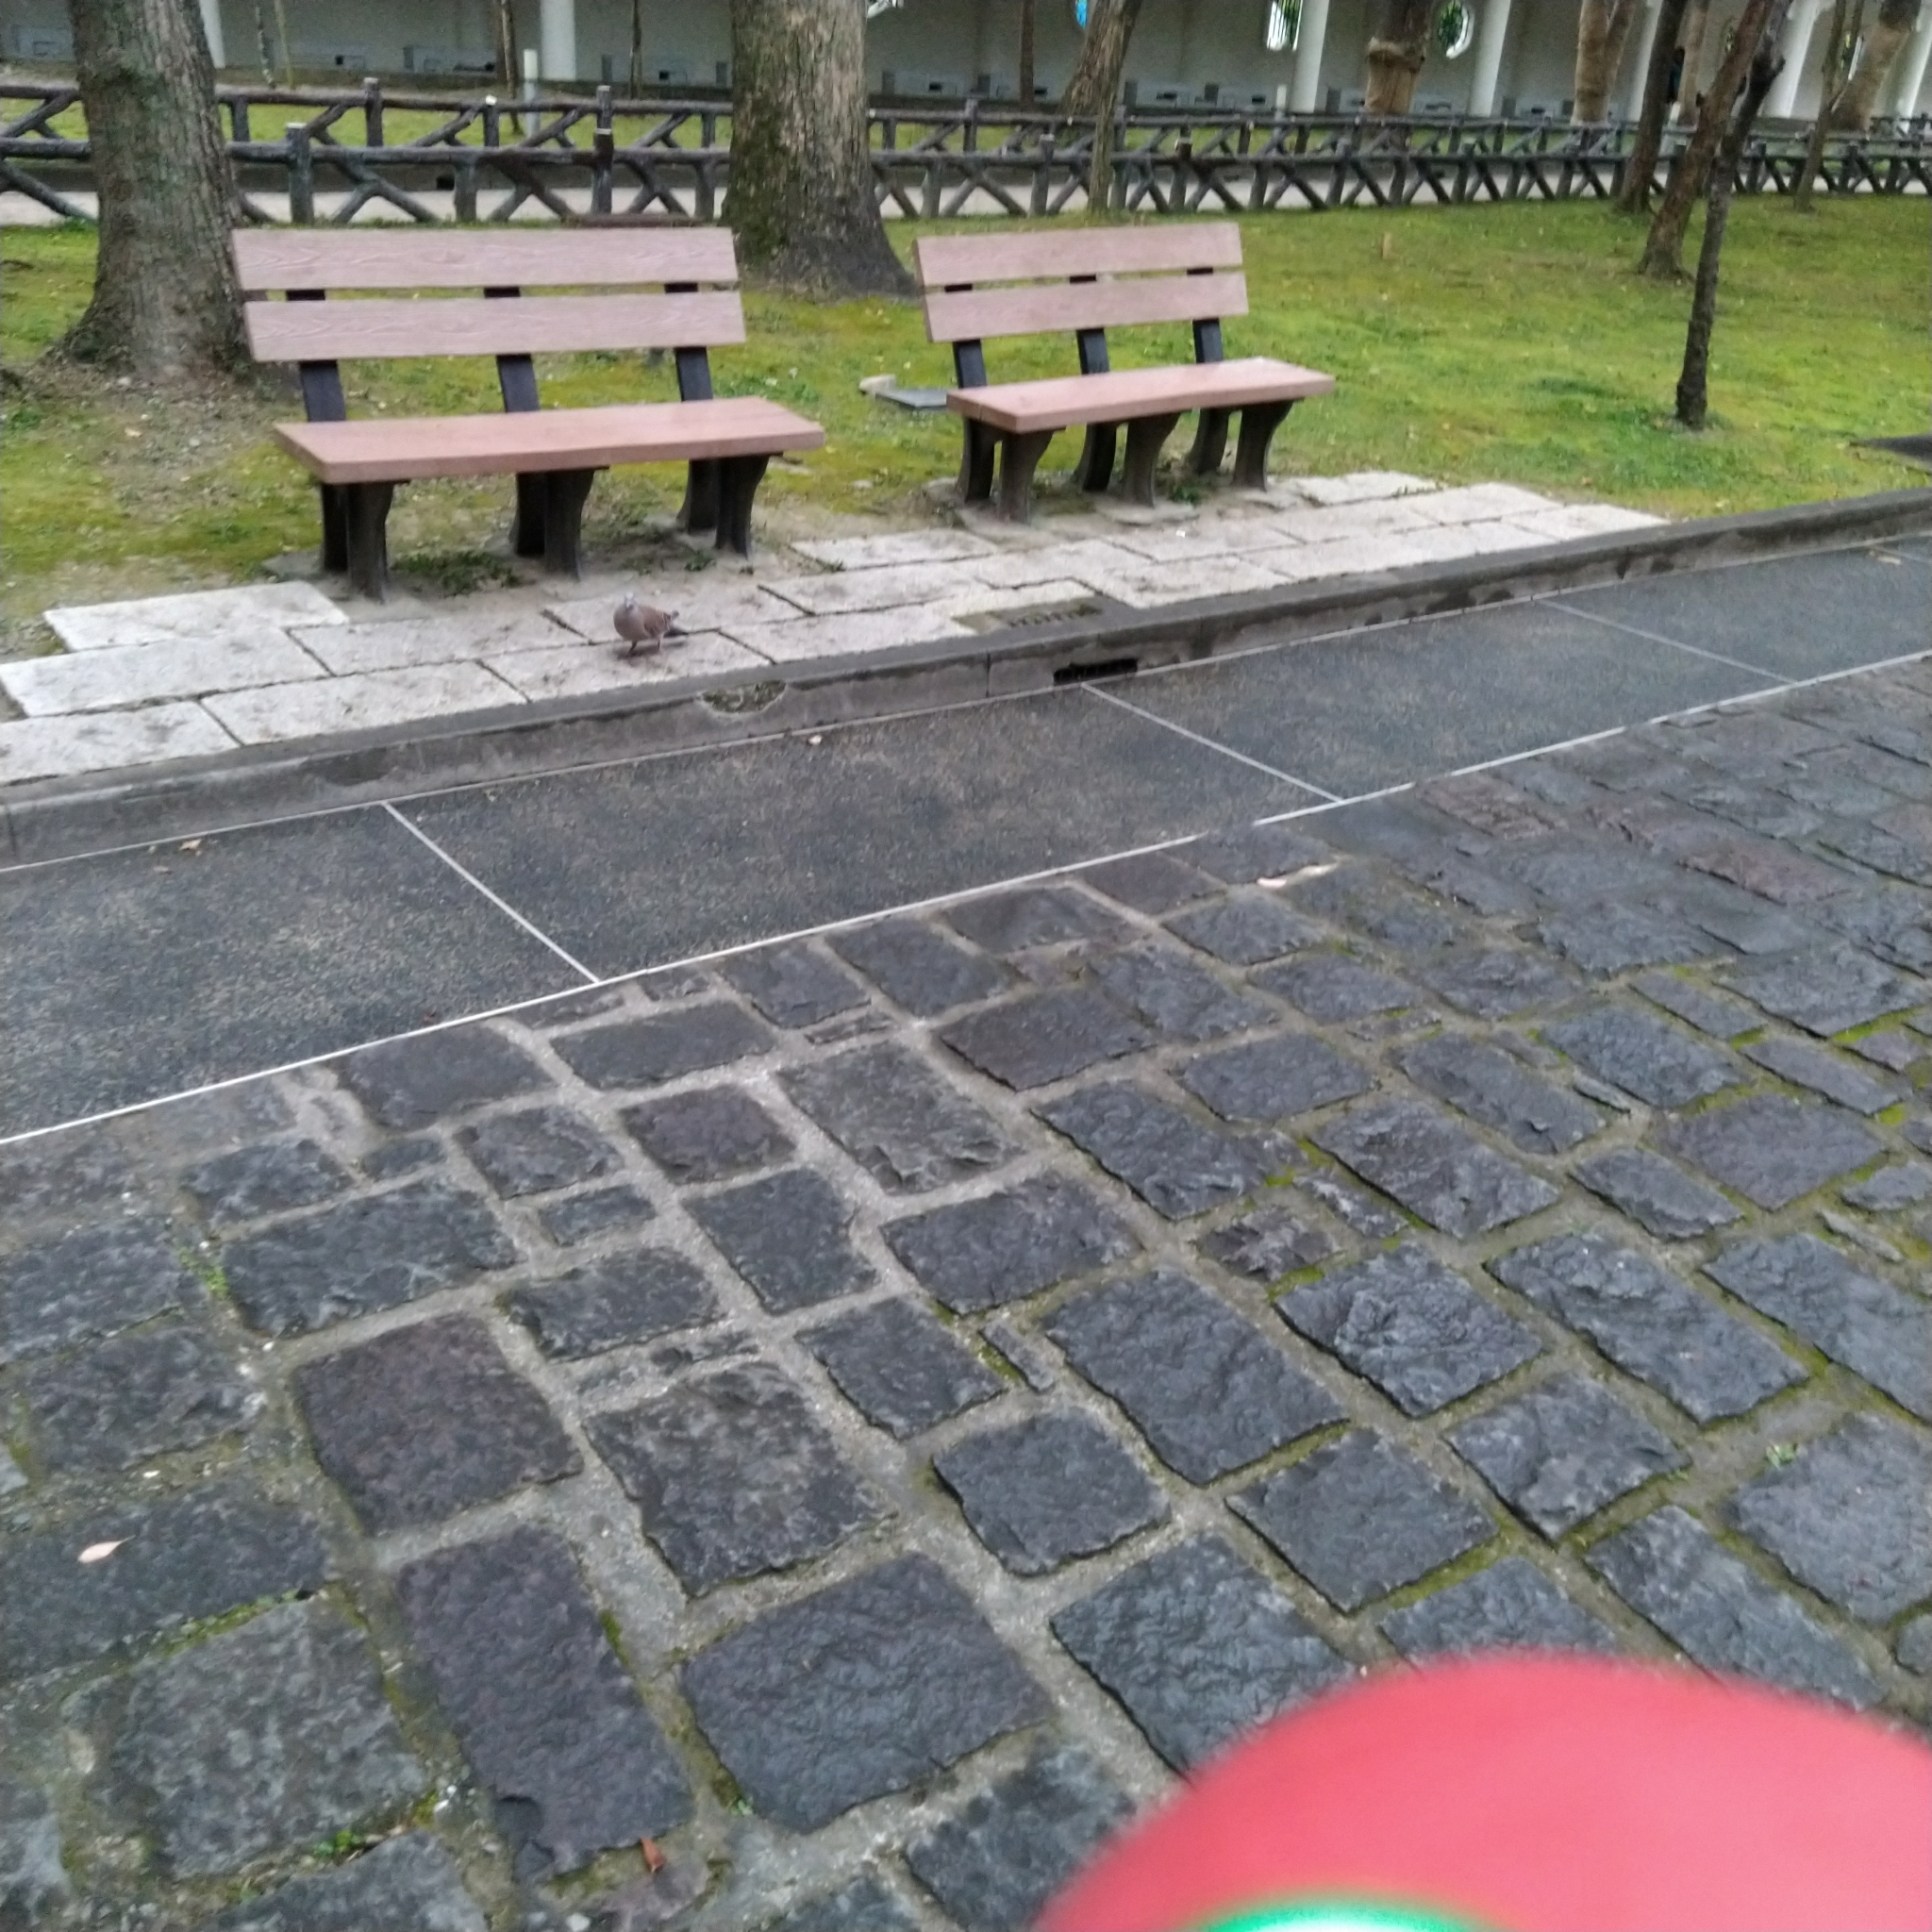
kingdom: Animalia
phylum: Chordata
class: Aves
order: Columbiformes
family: Columbidae
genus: Streptopelia
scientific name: Streptopelia orientalis
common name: Oriental turtle dove
